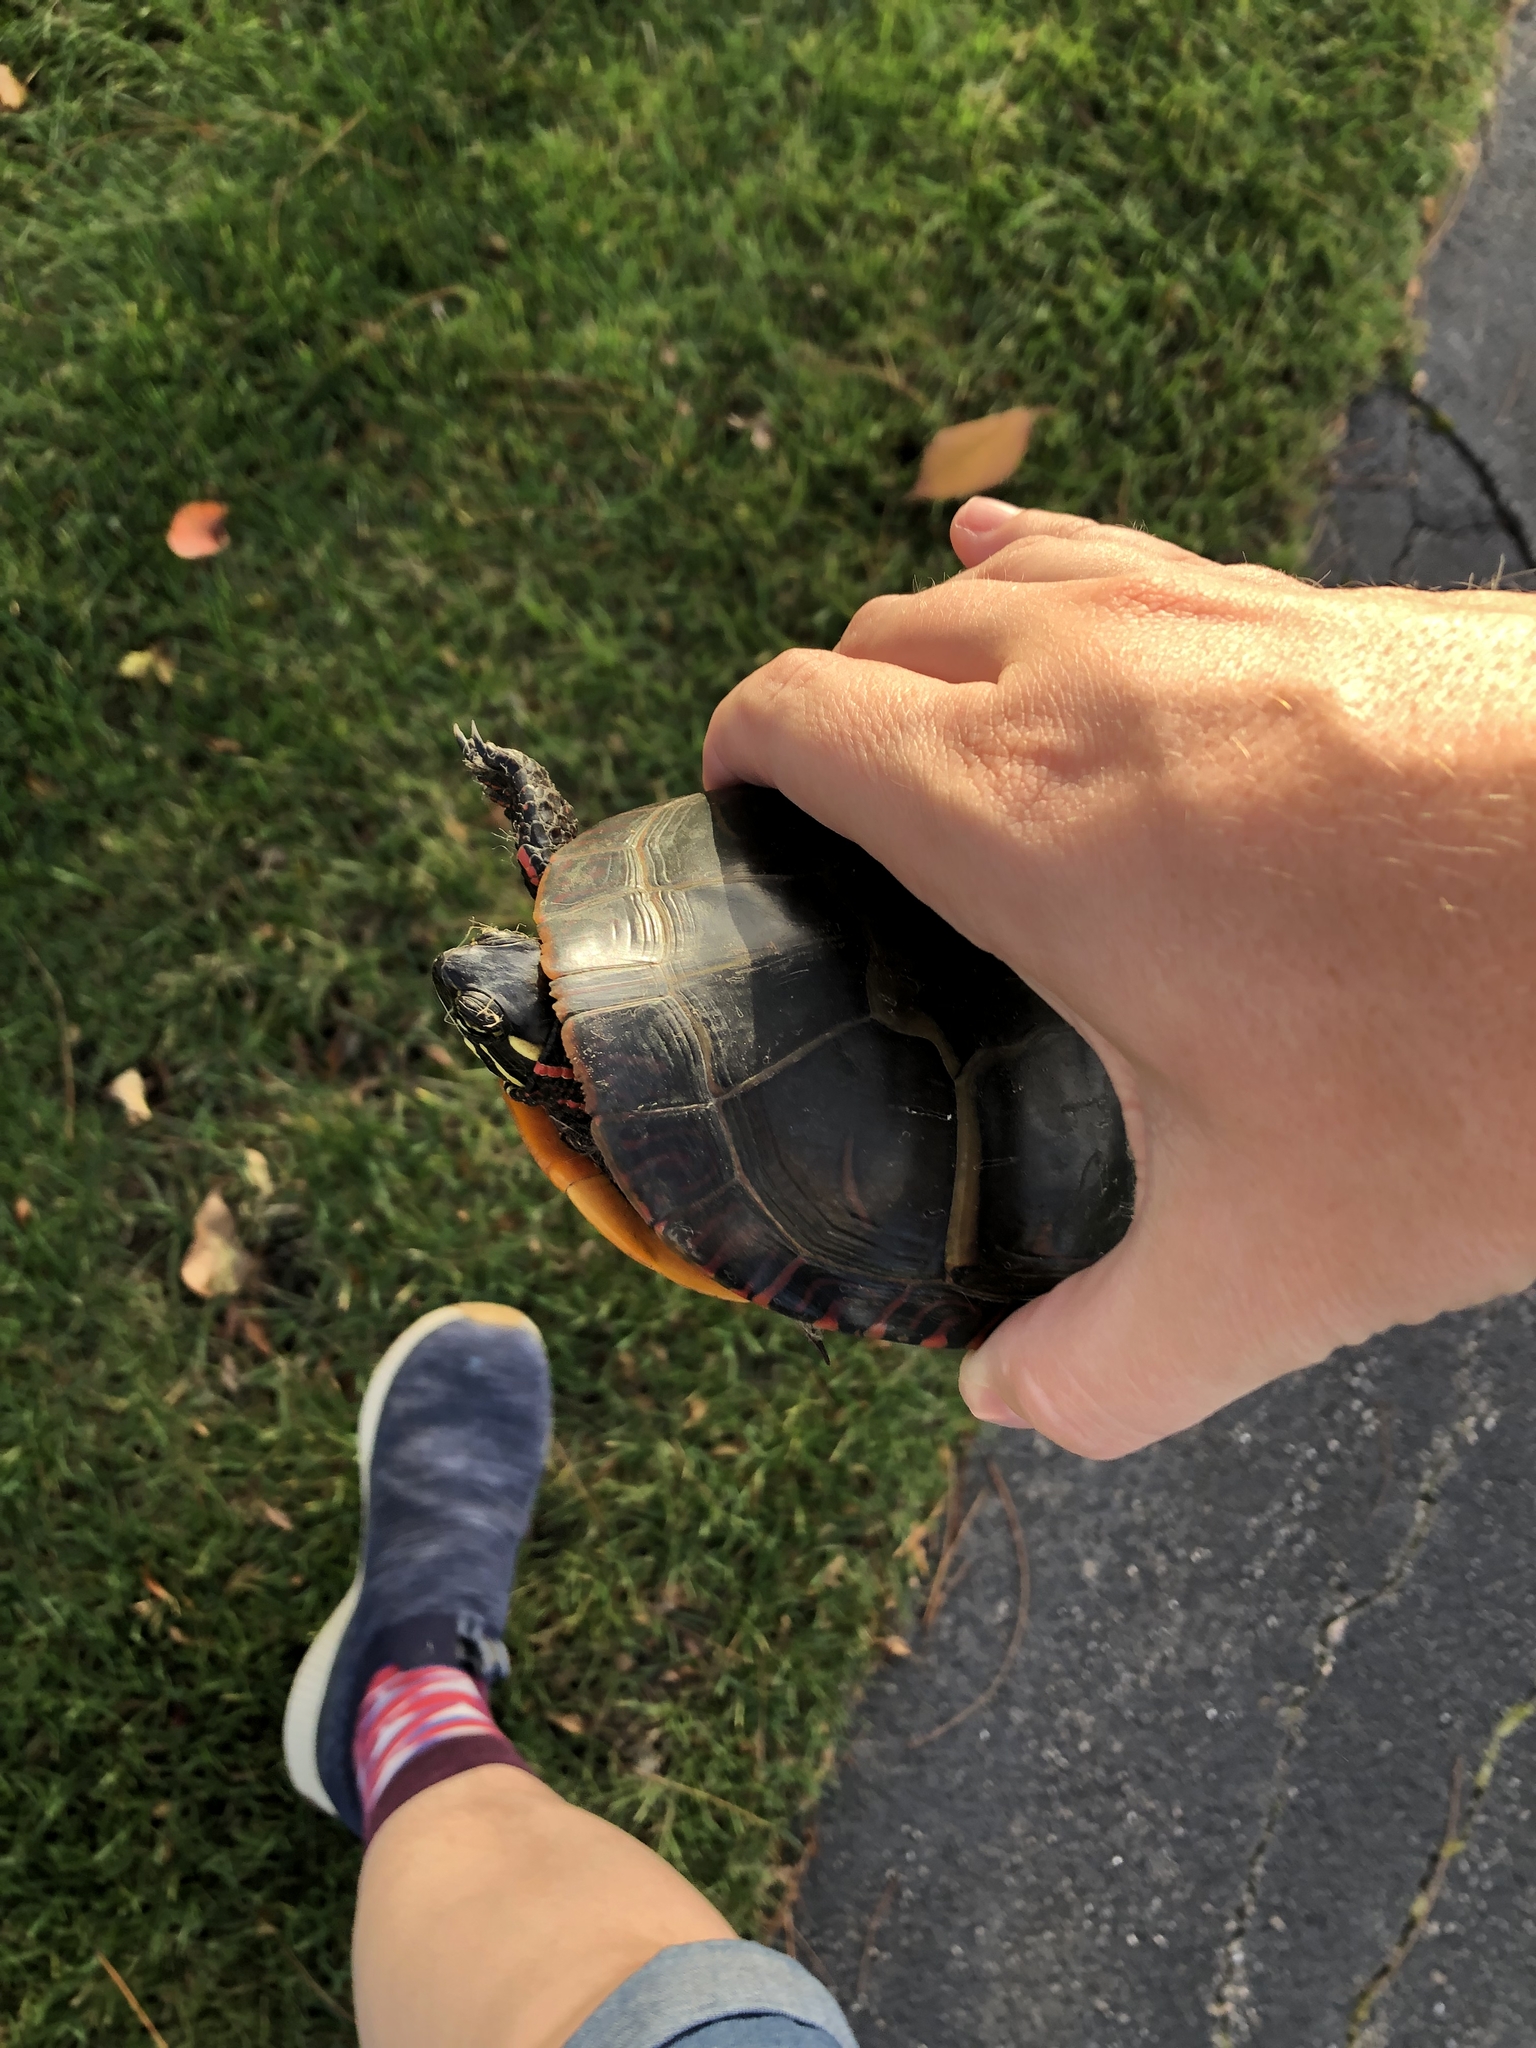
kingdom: Animalia
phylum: Chordata
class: Testudines
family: Emydidae
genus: Chrysemys
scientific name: Chrysemys picta
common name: Painted turtle
